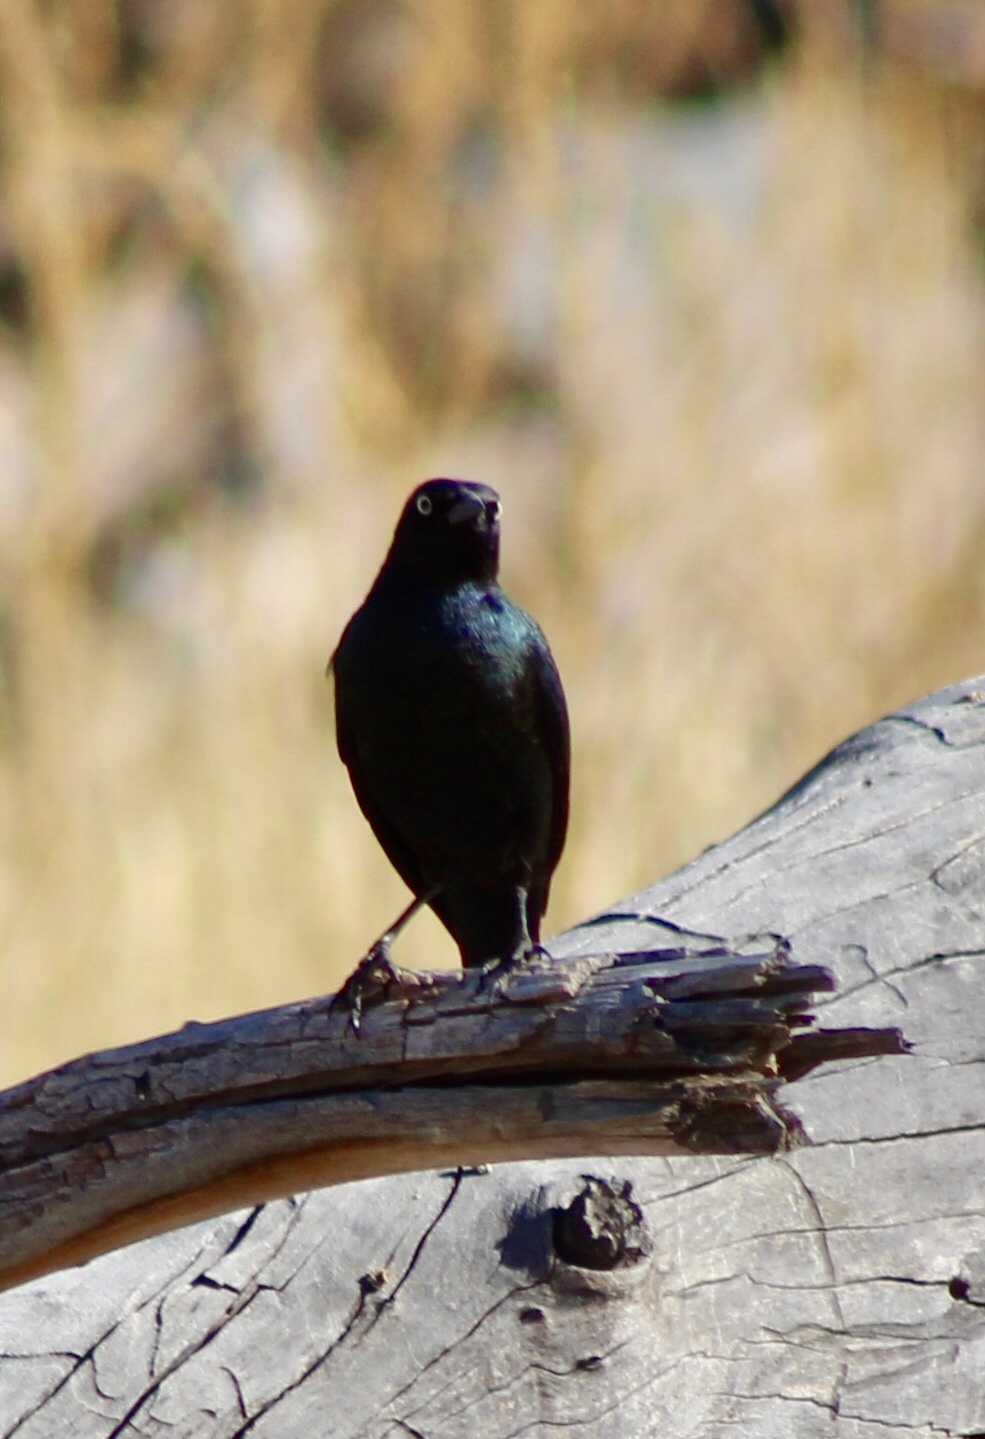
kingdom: Animalia
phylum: Chordata
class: Aves
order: Passeriformes
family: Icteridae
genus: Euphagus
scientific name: Euphagus cyanocephalus
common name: Brewer's blackbird
